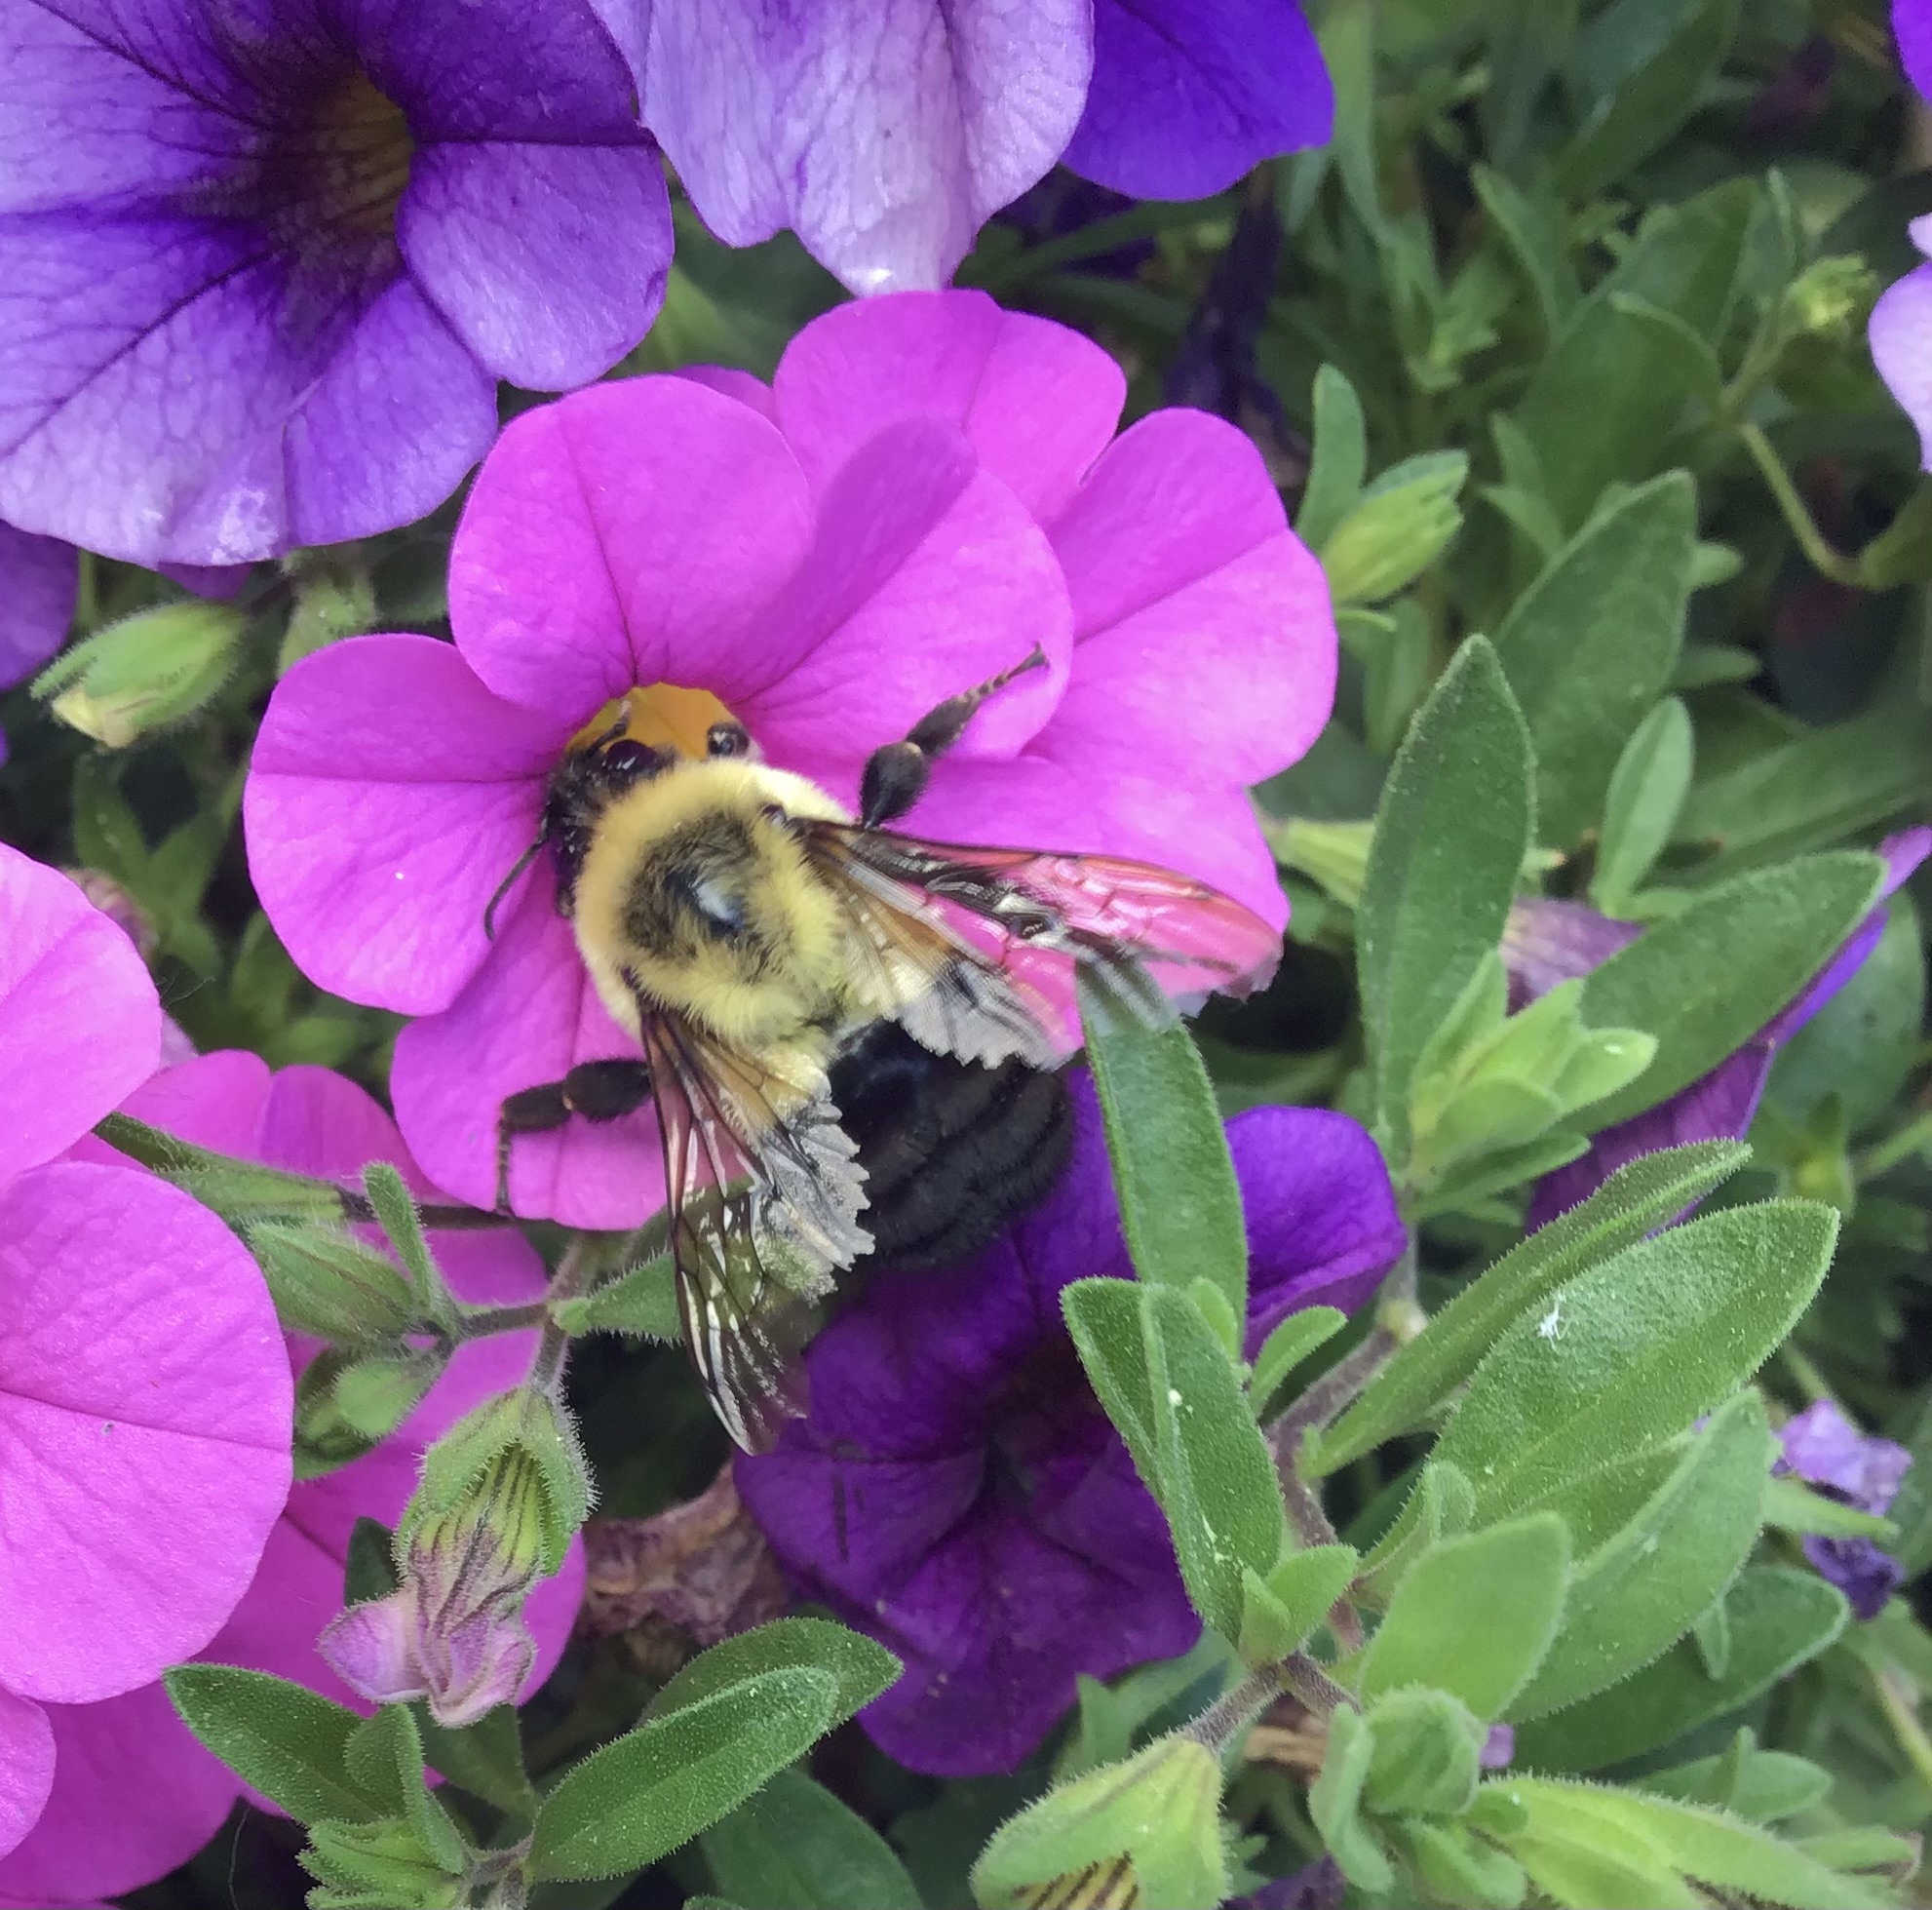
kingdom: Animalia
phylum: Arthropoda
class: Insecta
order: Hymenoptera
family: Apidae
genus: Bombus
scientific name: Bombus impatiens
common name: Common eastern bumble bee
